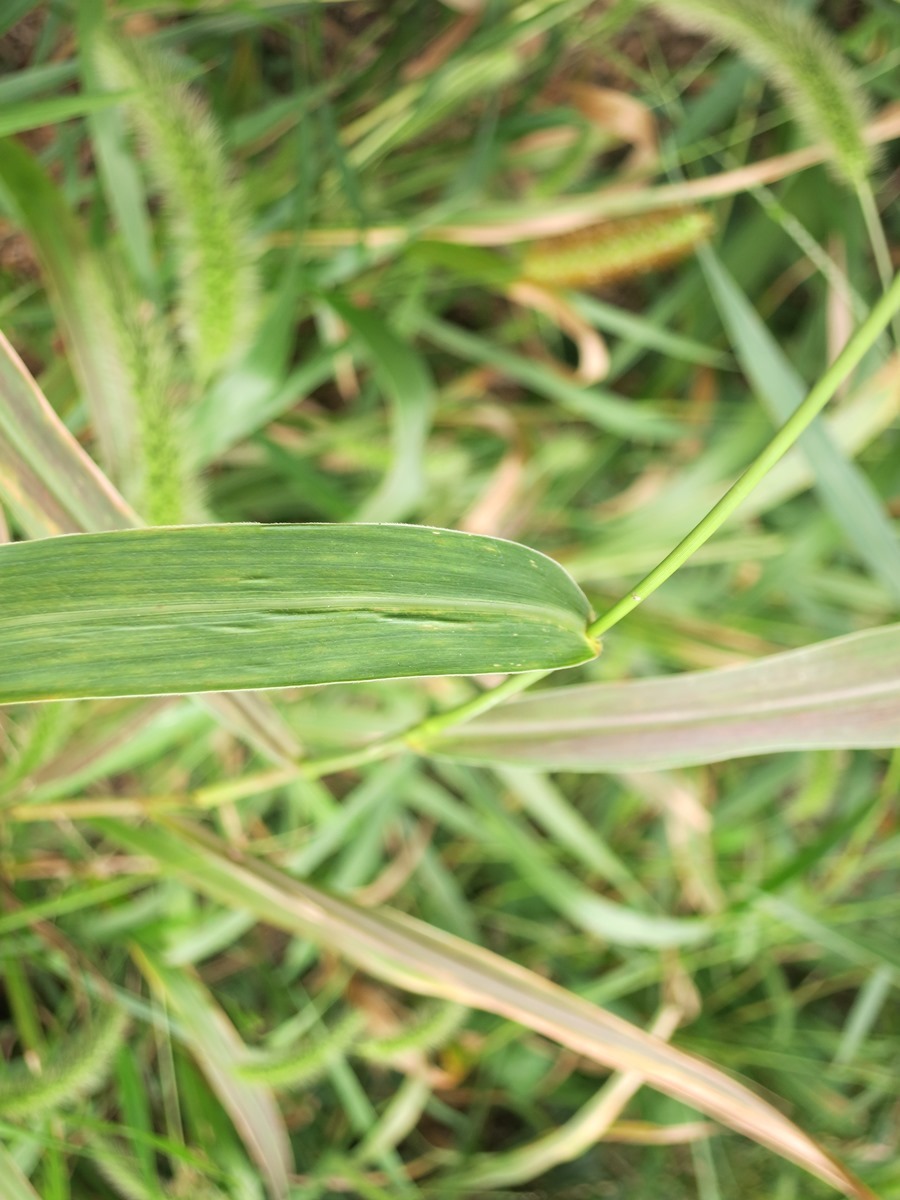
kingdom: Plantae
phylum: Tracheophyta
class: Liliopsida
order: Poales
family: Poaceae
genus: Setaria
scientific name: Setaria faberi
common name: Nodding bristle-grass
